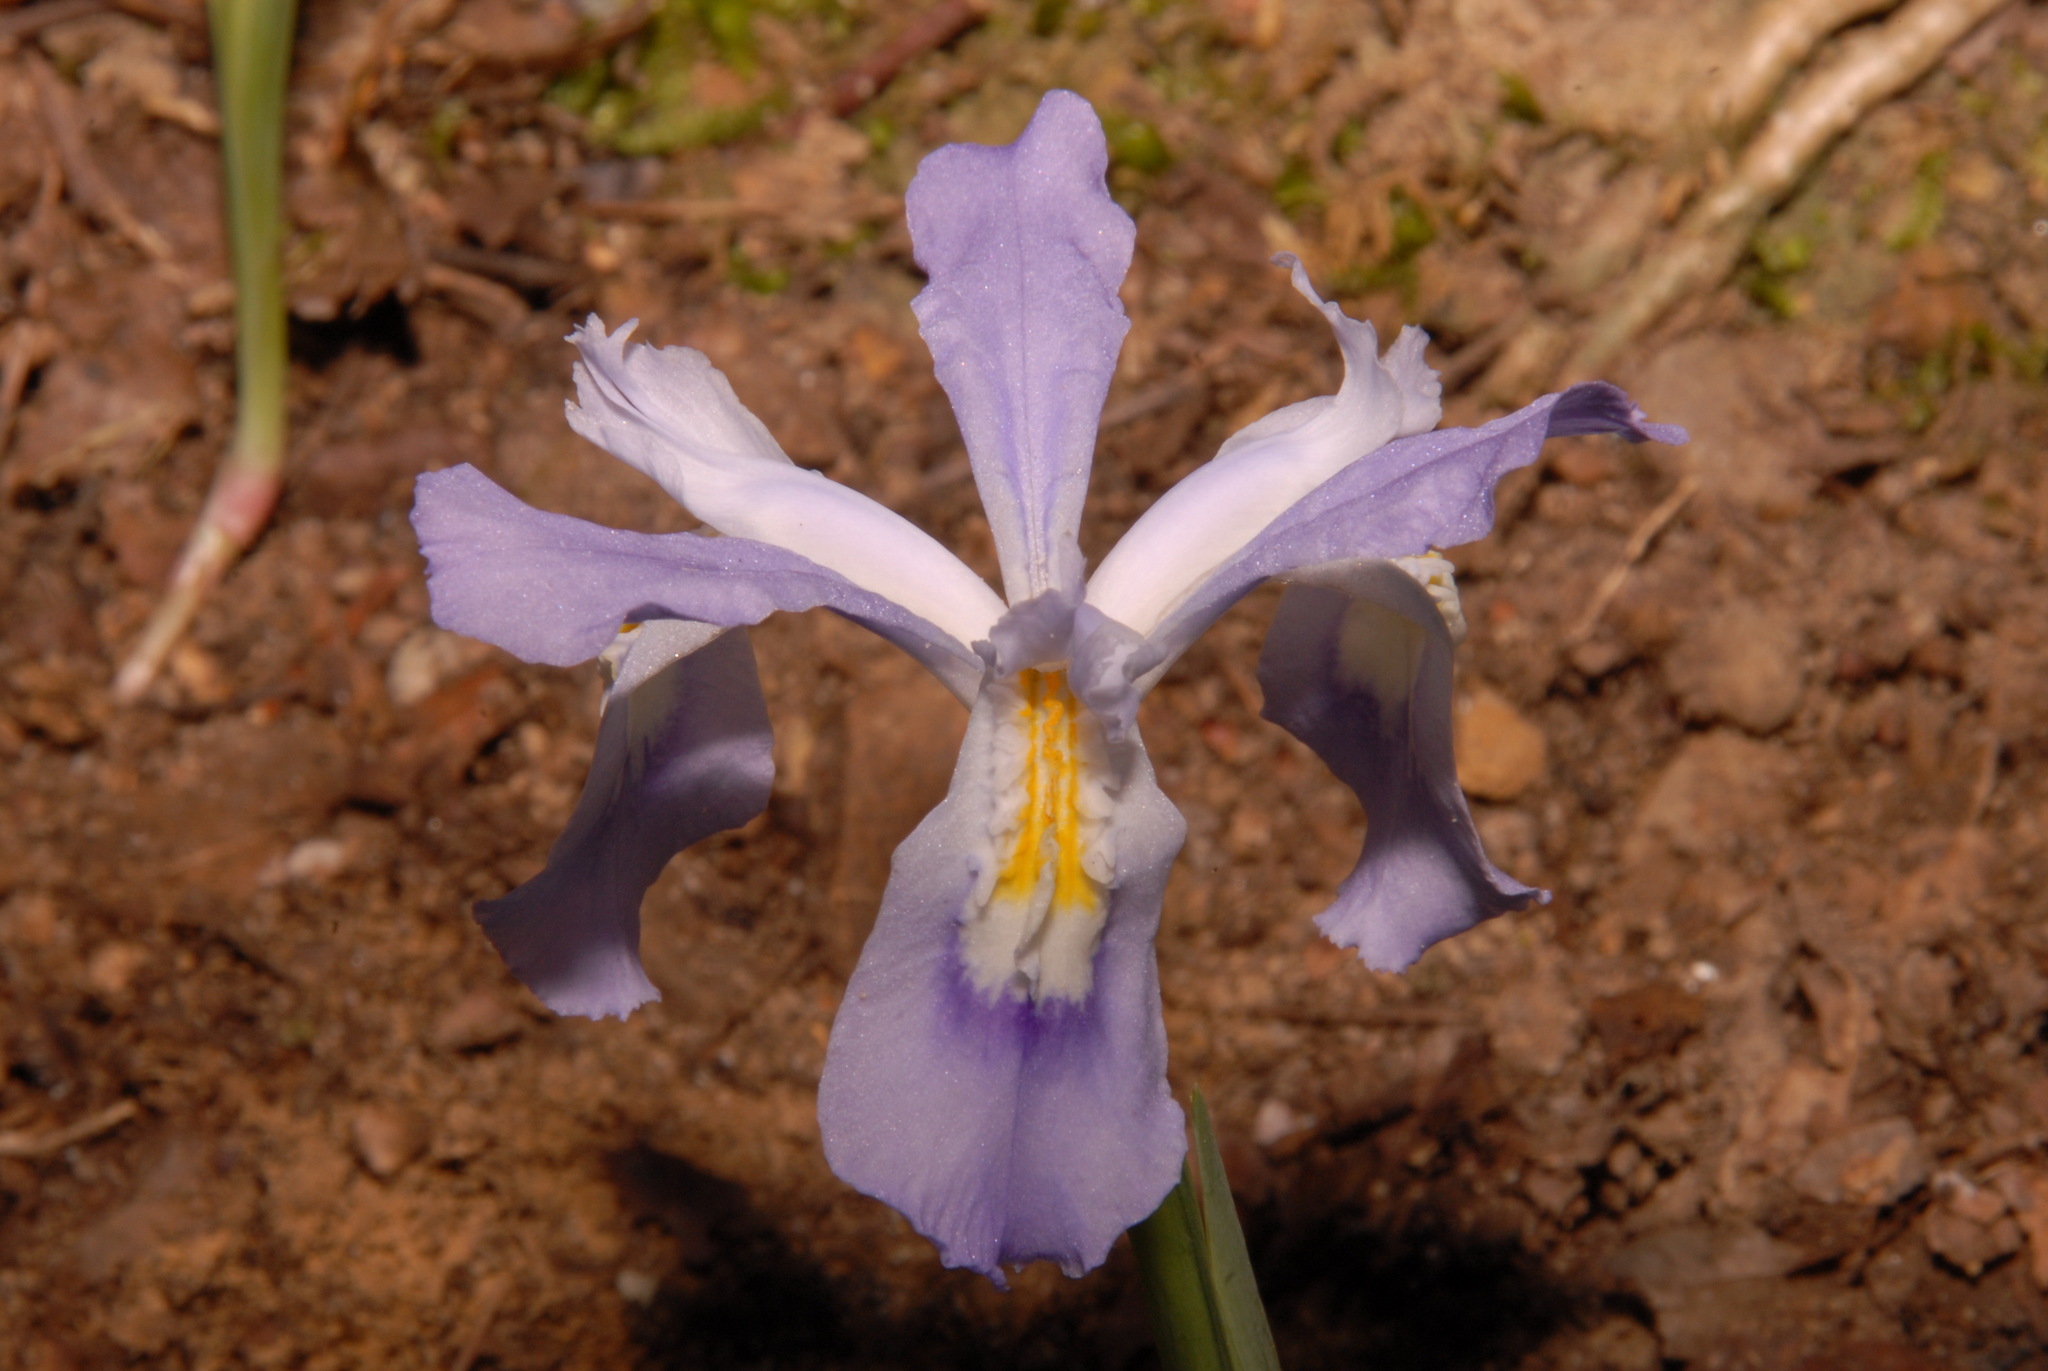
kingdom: Plantae
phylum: Tracheophyta
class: Liliopsida
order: Asparagales
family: Iridaceae
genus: Iris
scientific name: Iris cristata
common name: Crested iris
